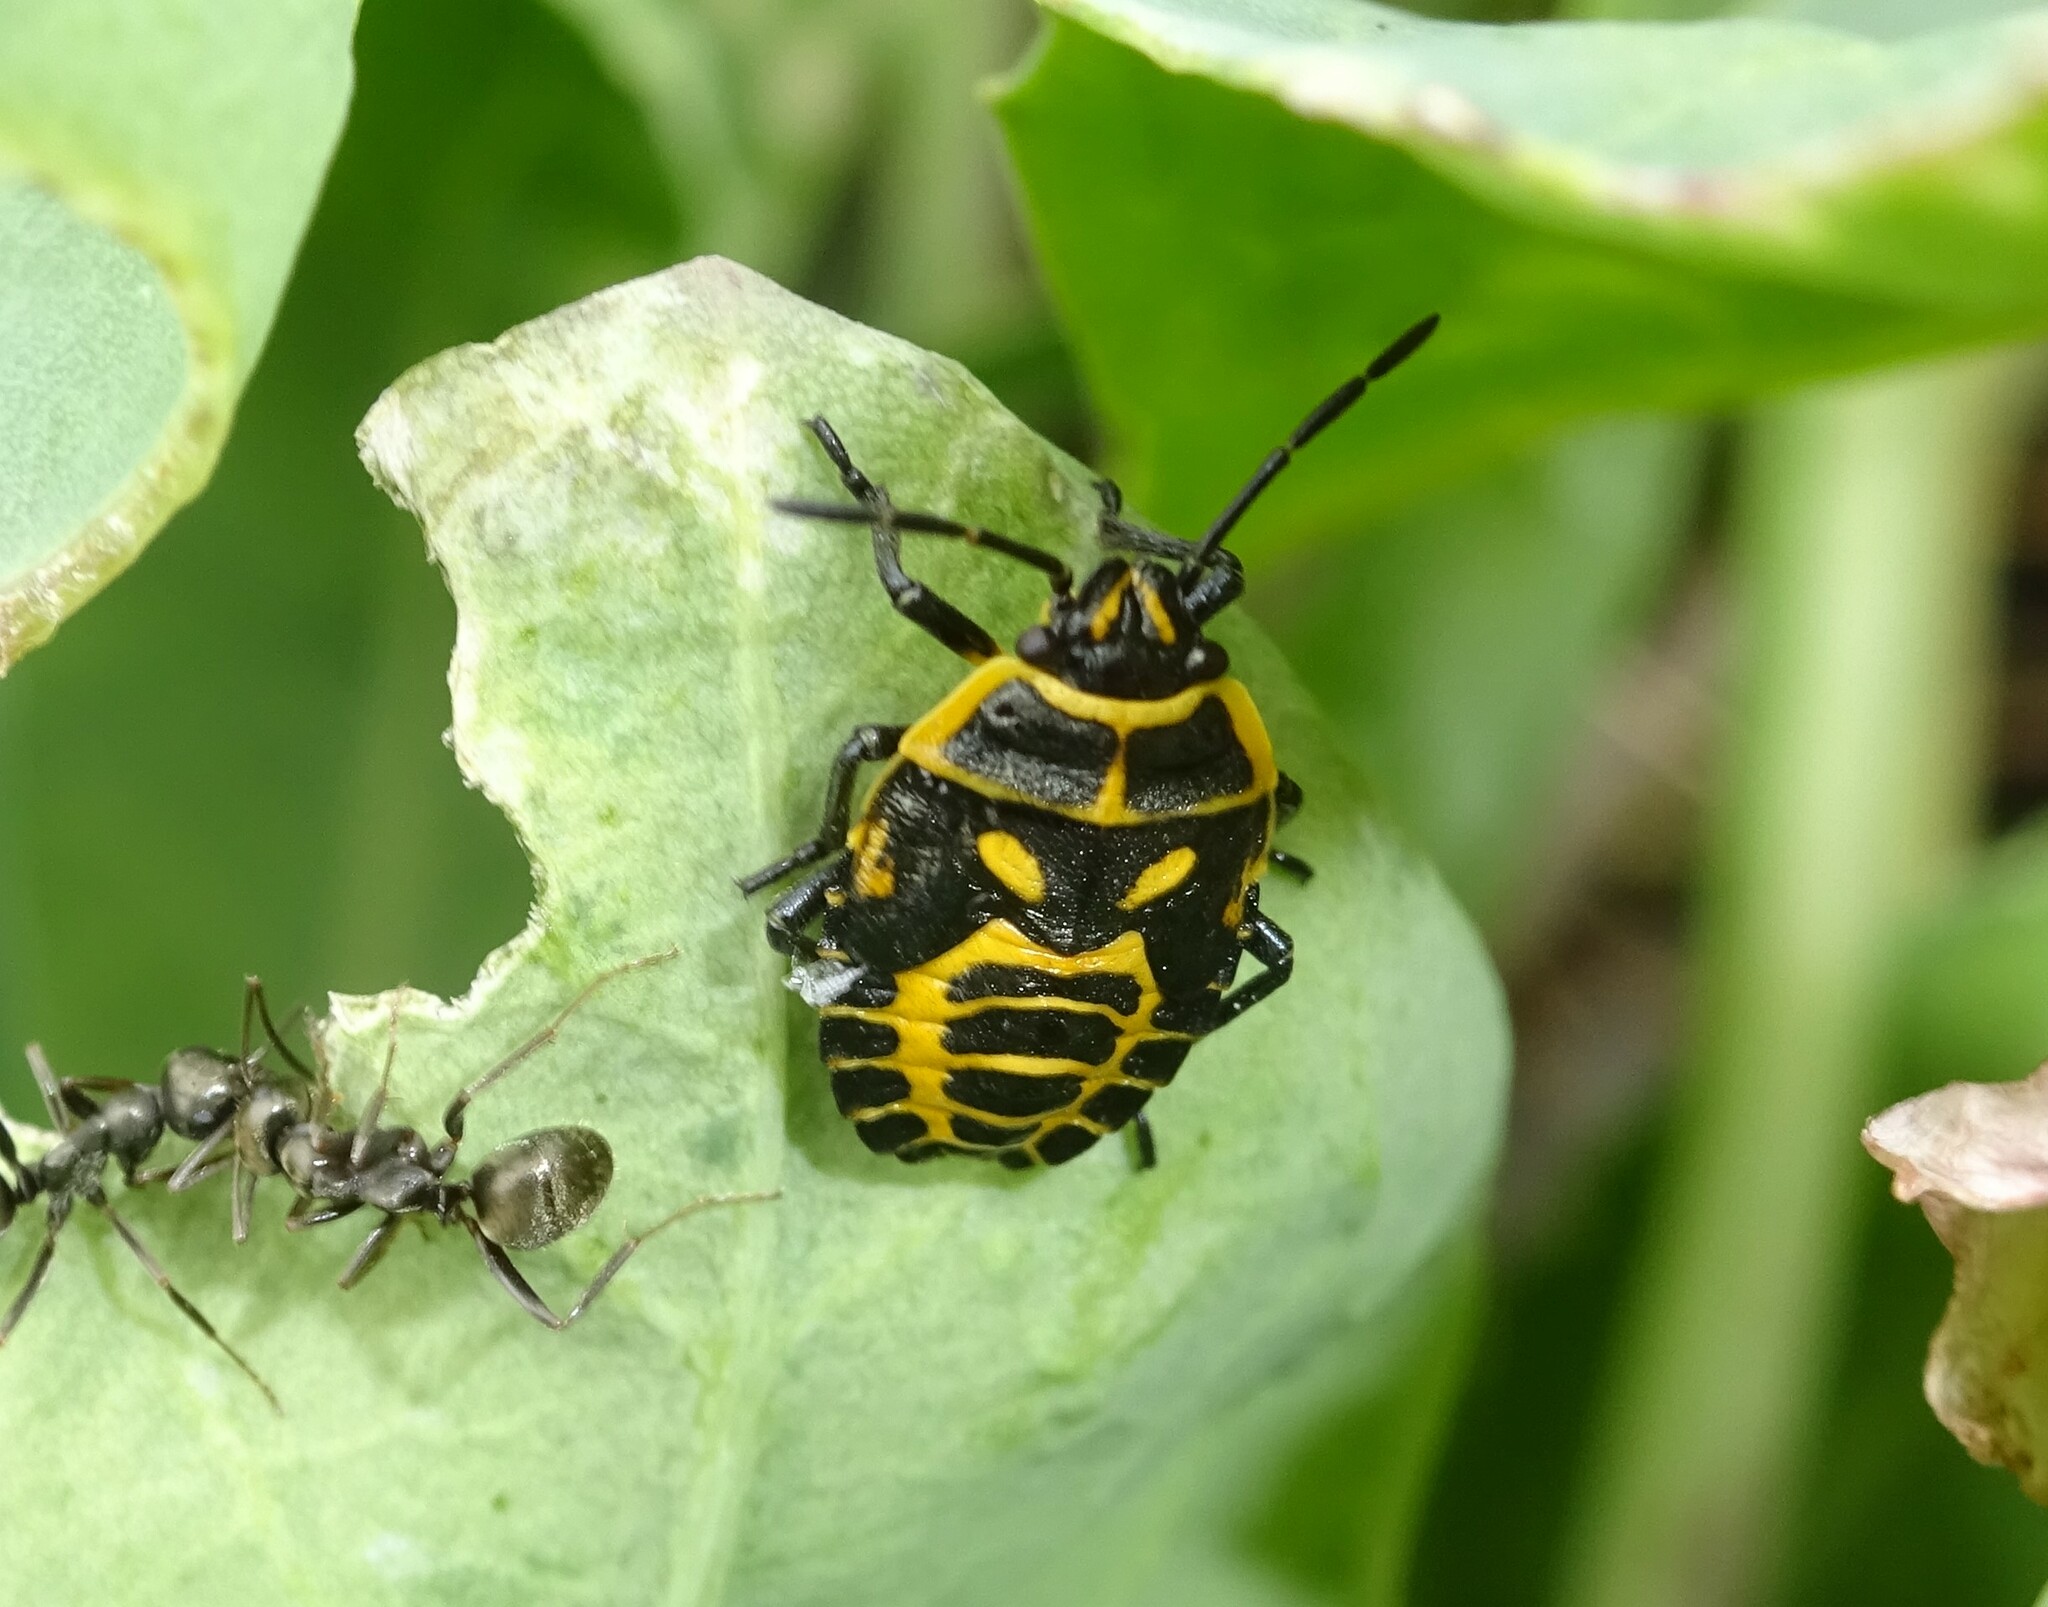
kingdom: Animalia
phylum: Arthropoda
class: Insecta
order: Hemiptera
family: Pentatomidae
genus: Eurydema
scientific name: Eurydema ventralis
